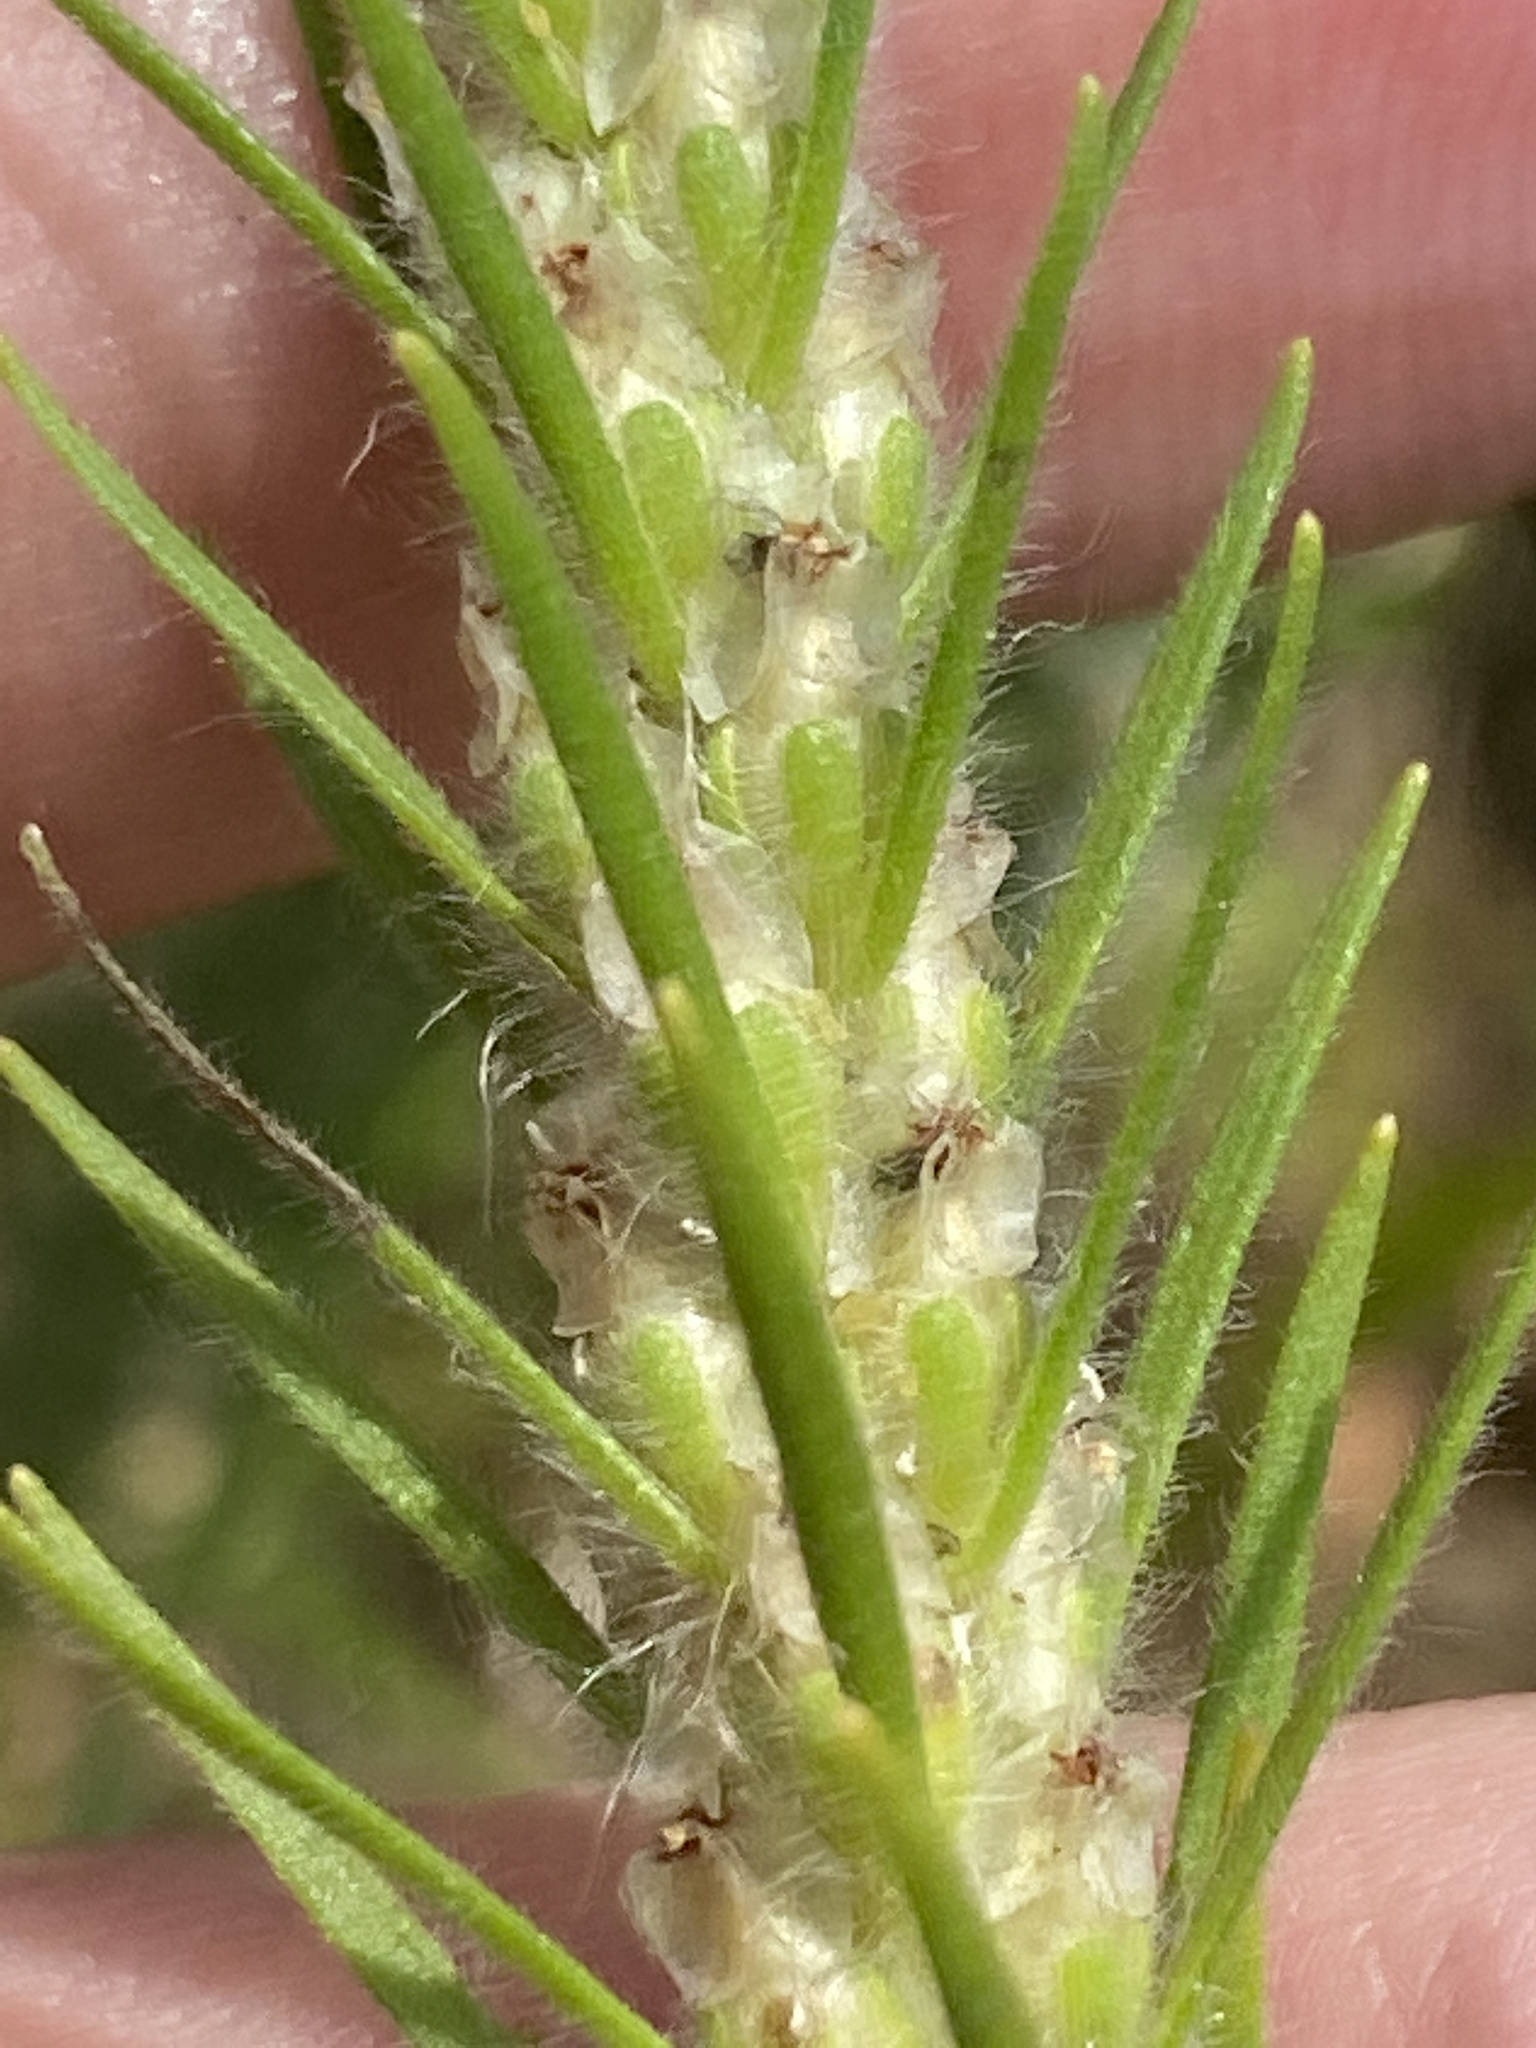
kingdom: Plantae
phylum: Tracheophyta
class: Magnoliopsida
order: Lamiales
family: Plantaginaceae
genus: Plantago
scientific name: Plantago aristata
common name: Bracted plantain
